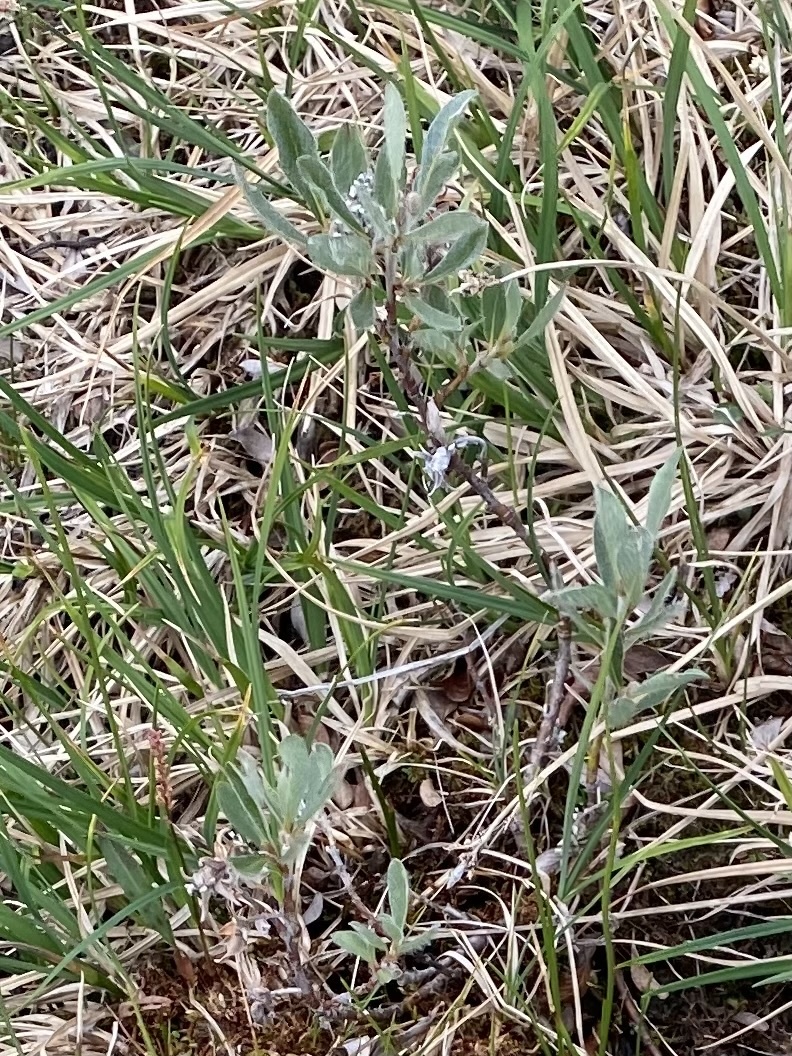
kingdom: Plantae
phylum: Tracheophyta
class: Magnoliopsida
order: Malpighiales
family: Salicaceae
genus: Salix
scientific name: Salix glauca
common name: Glaucous willow
